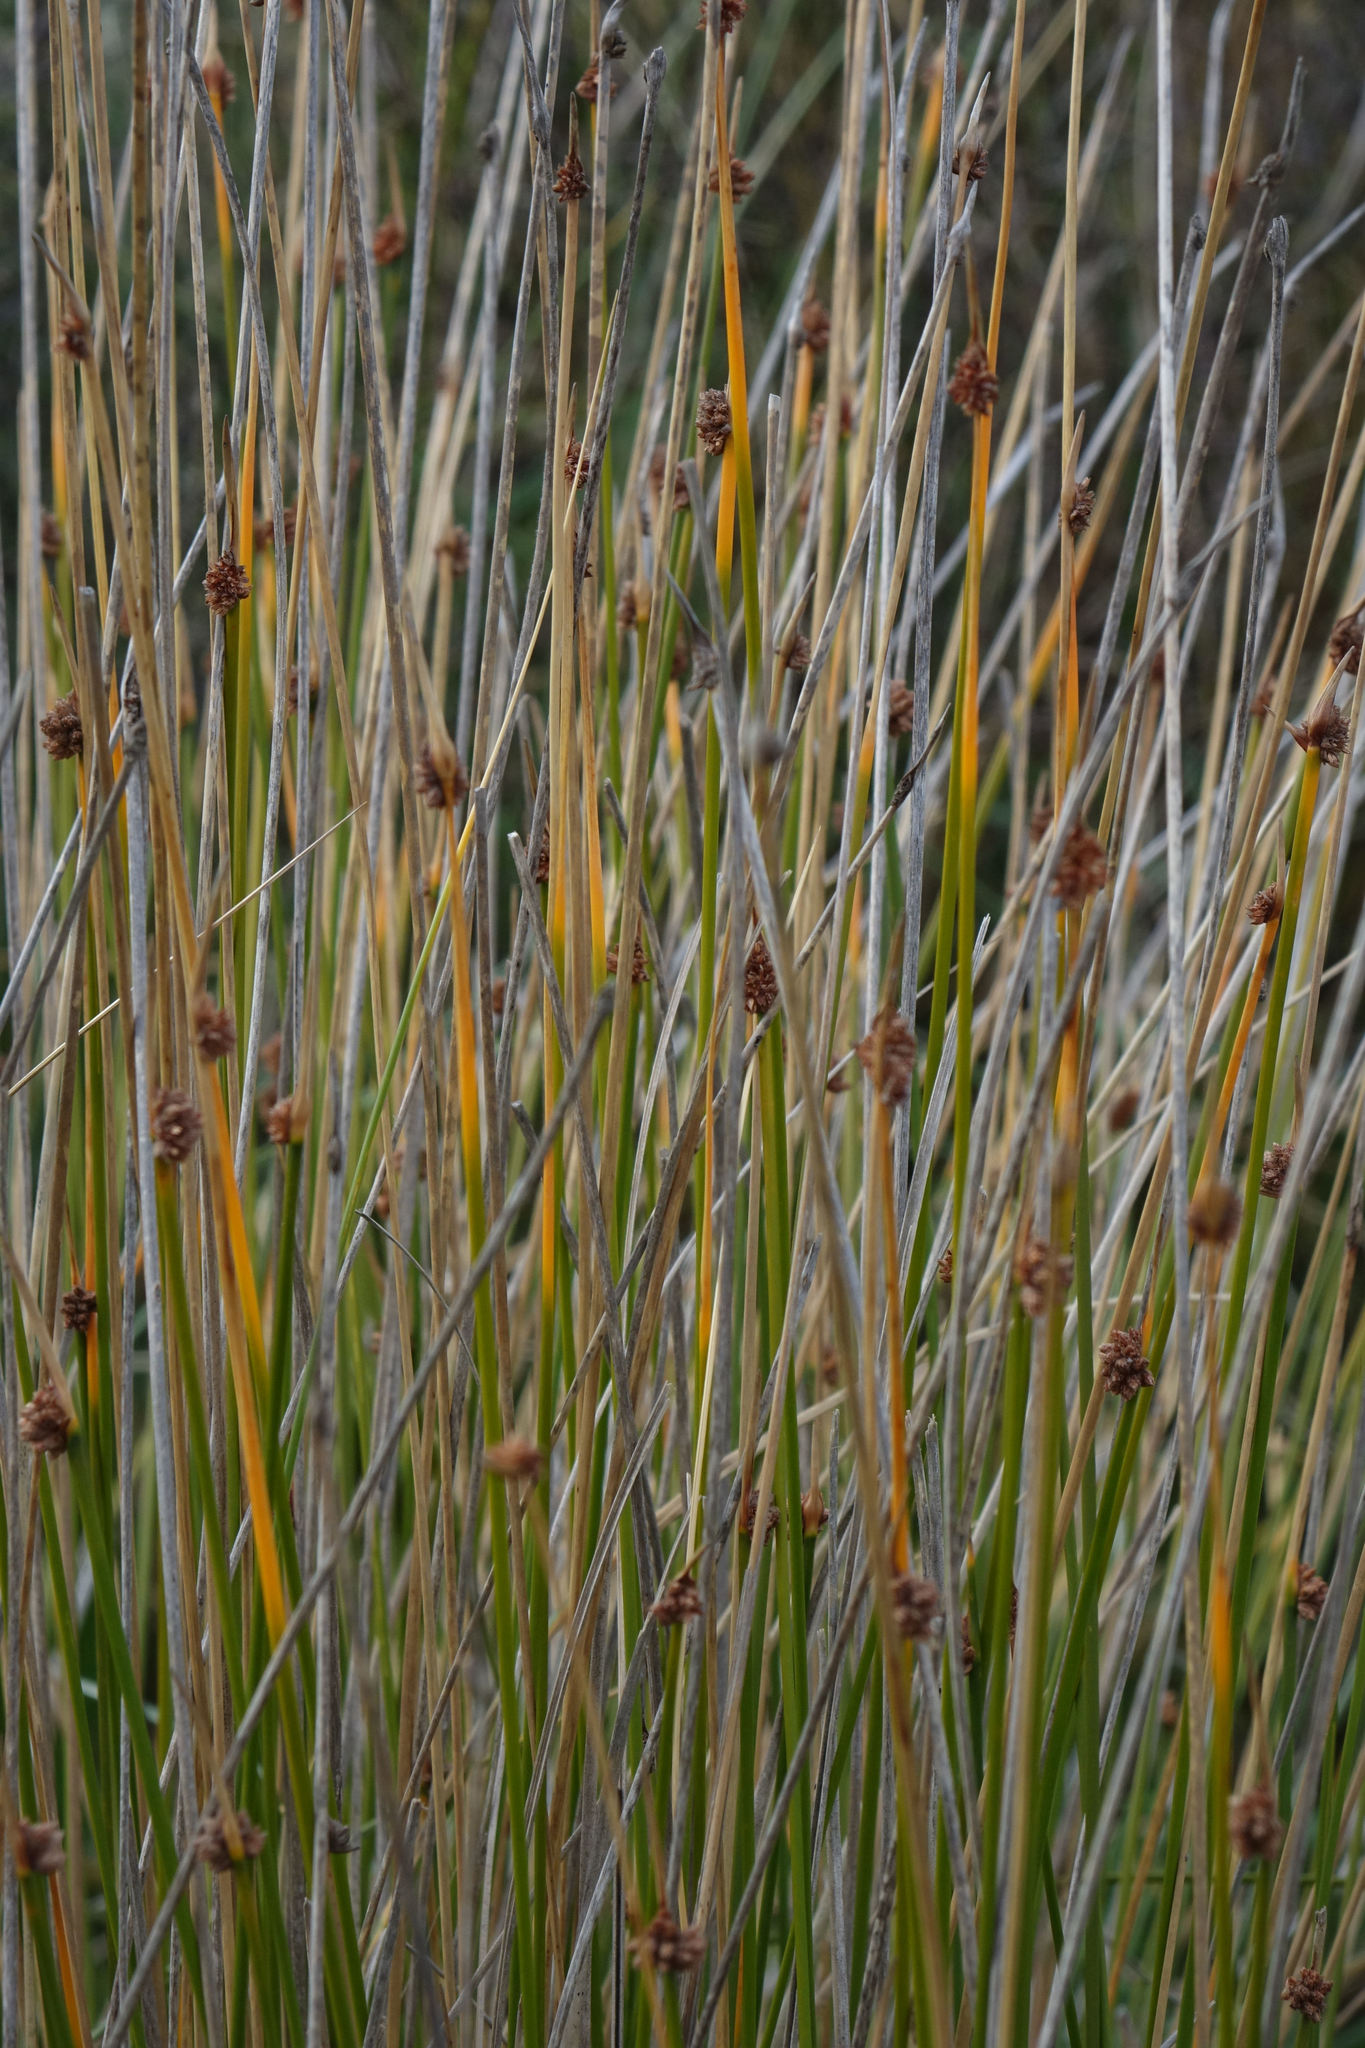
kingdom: Plantae
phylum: Tracheophyta
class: Liliopsida
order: Poales
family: Cyperaceae
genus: Ficinia
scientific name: Ficinia nodosa
